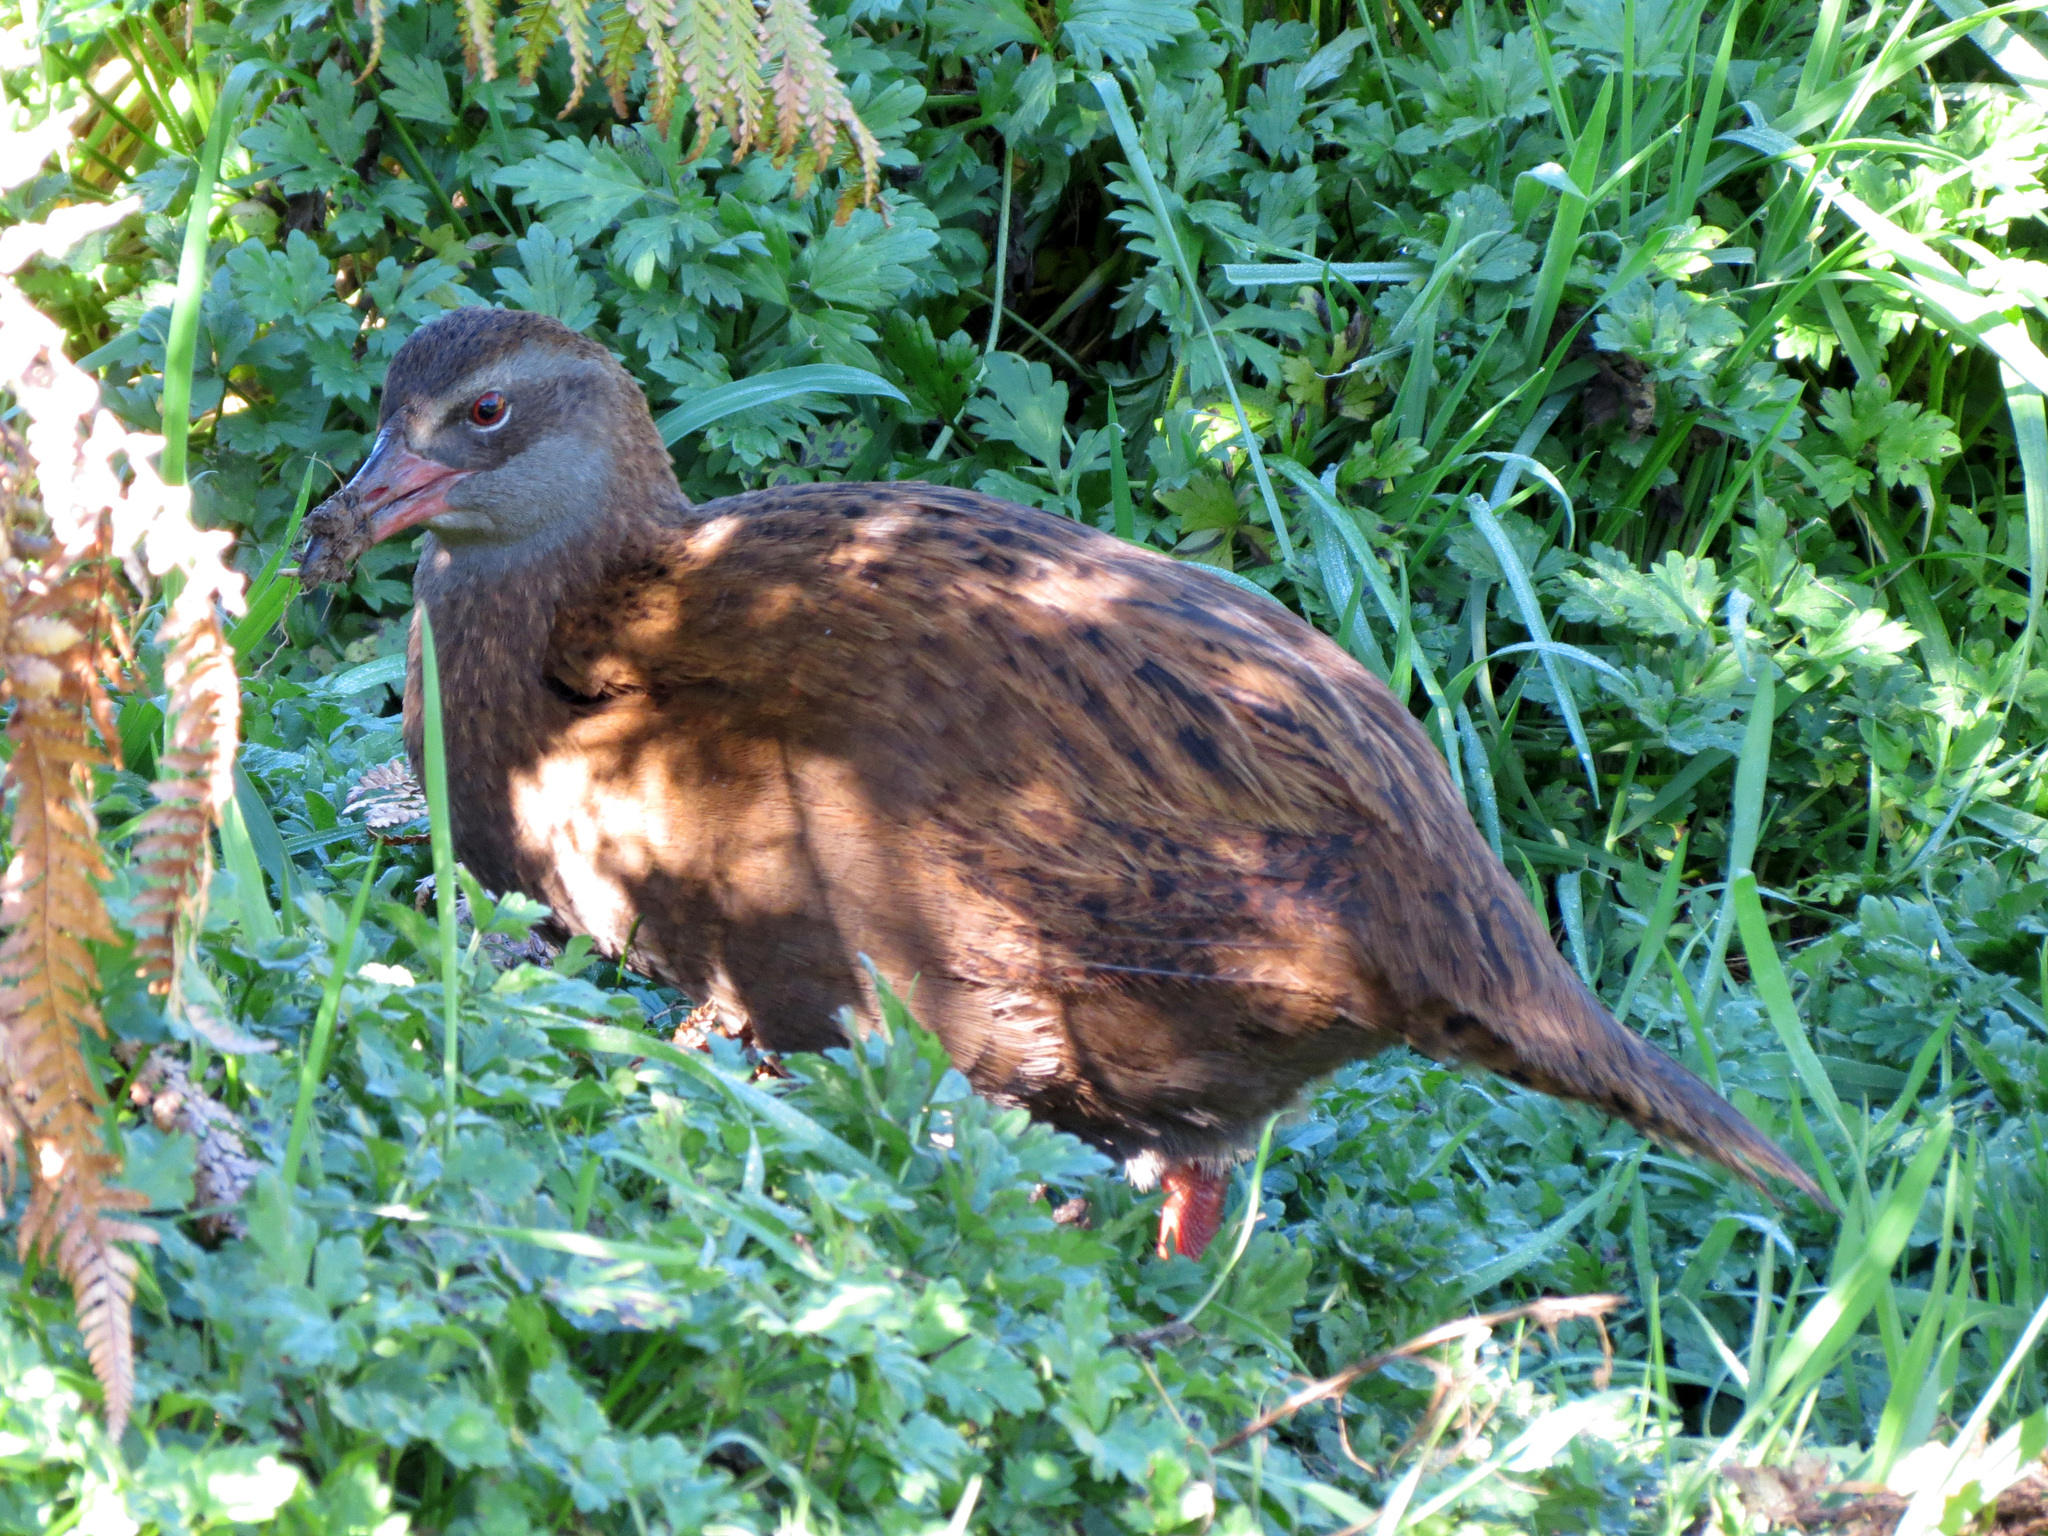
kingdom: Animalia
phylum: Chordata
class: Aves
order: Gruiformes
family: Rallidae
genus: Gallirallus
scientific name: Gallirallus australis
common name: Weka
